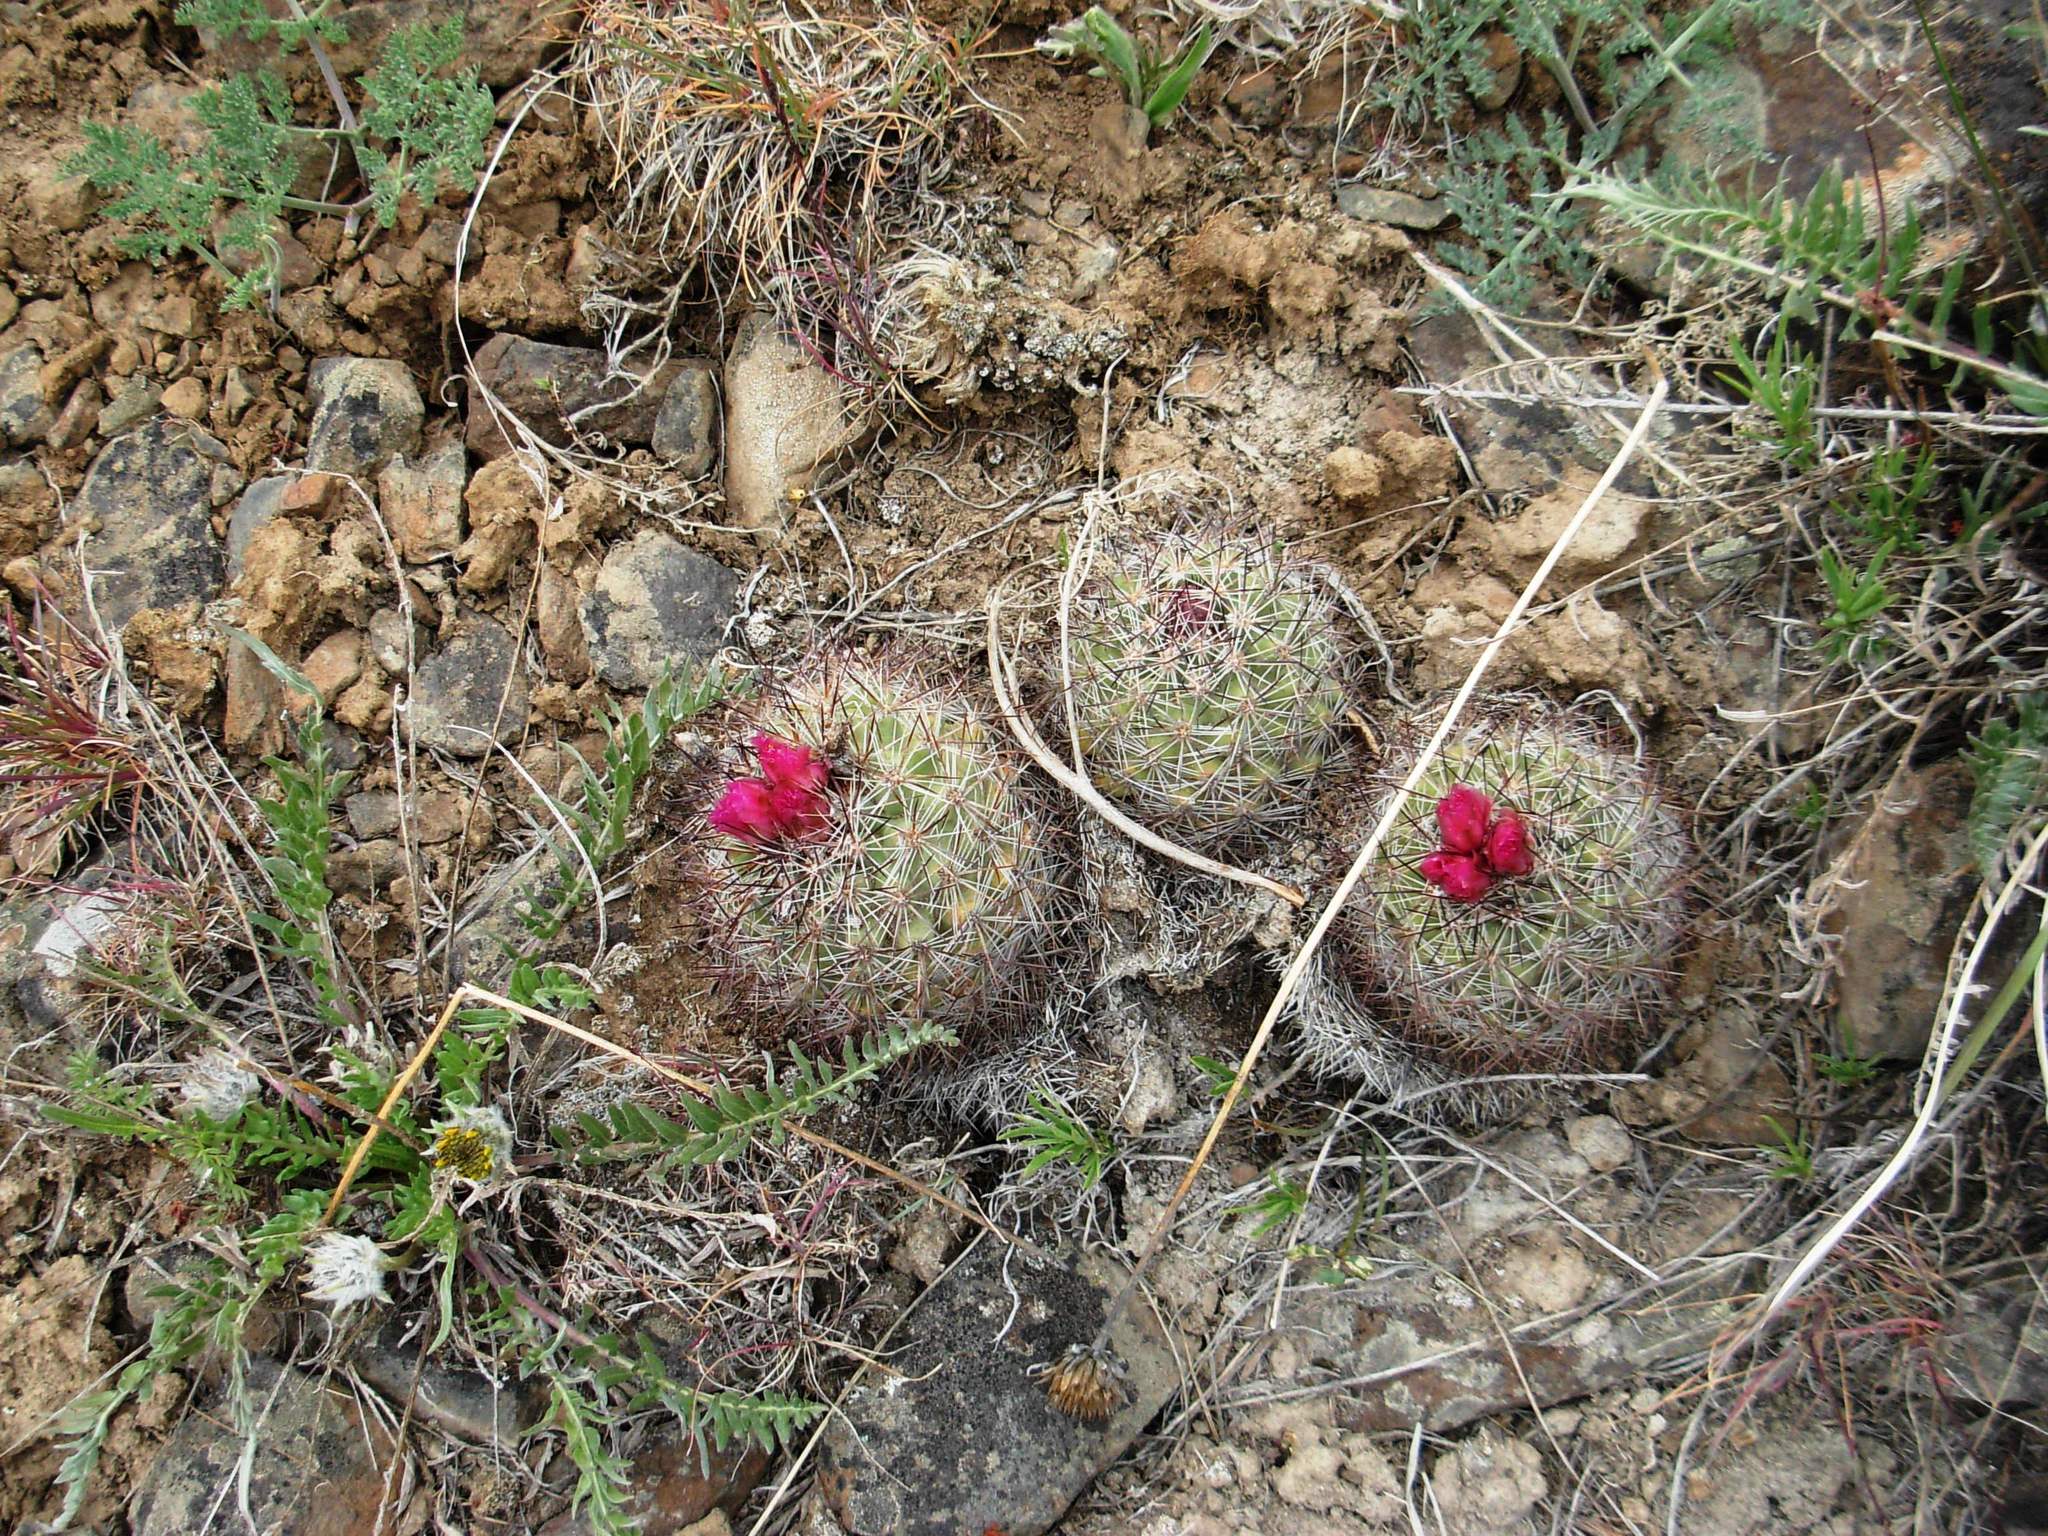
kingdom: Plantae
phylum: Tracheophyta
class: Magnoliopsida
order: Caryophyllales
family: Cactaceae
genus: Pediocactus
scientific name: Pediocactus nigrispinus
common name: Simpson's hedgehog cactus
